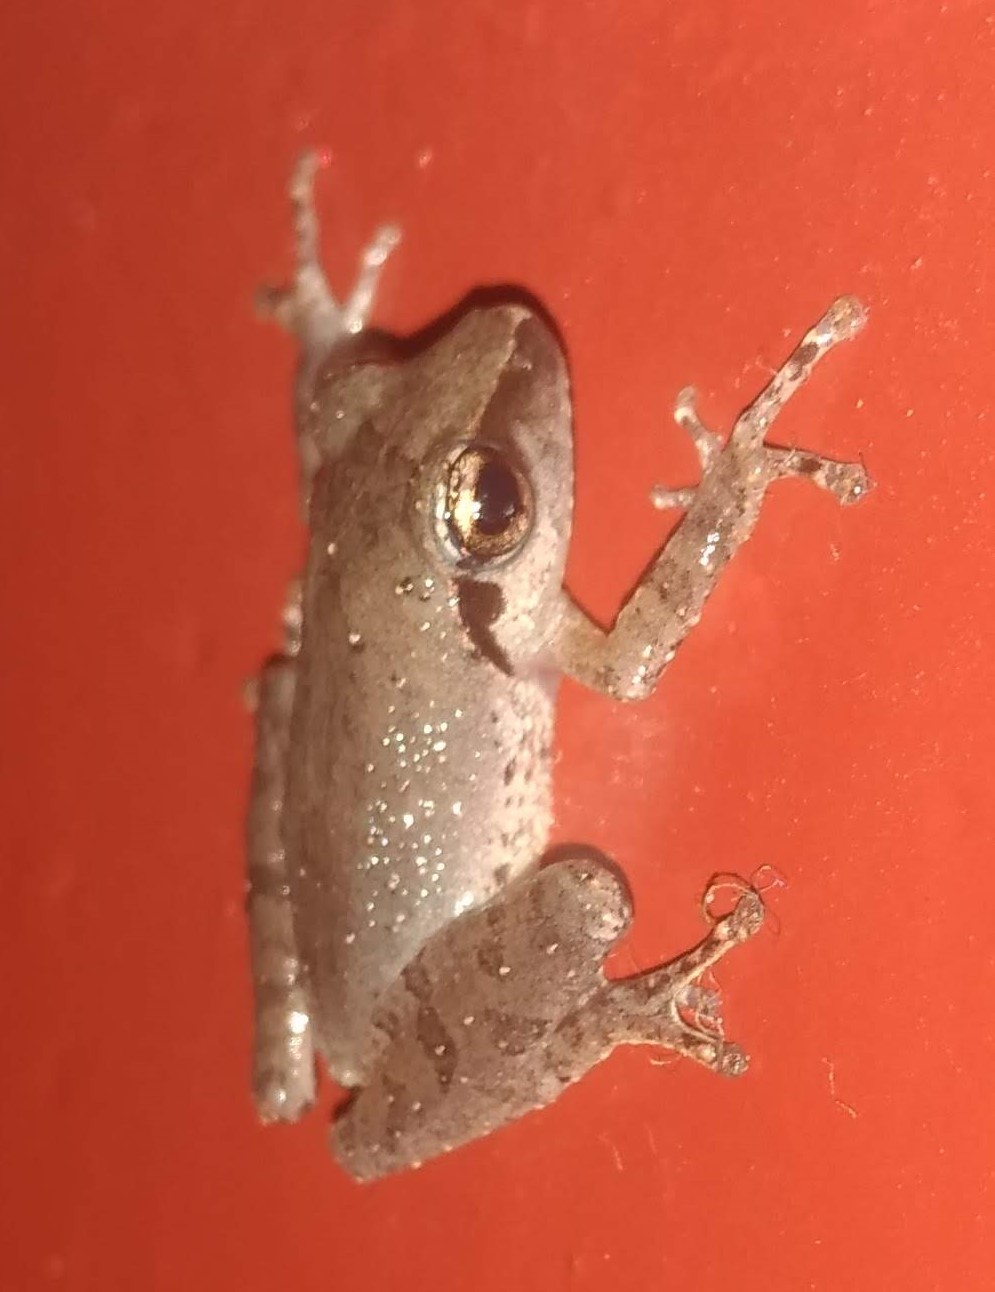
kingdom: Animalia
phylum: Chordata
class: Amphibia
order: Anura
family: Rhacophoridae
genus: Pseudophilautus
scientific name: Pseudophilautus wynaadensis
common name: Dark-eared bush frog
